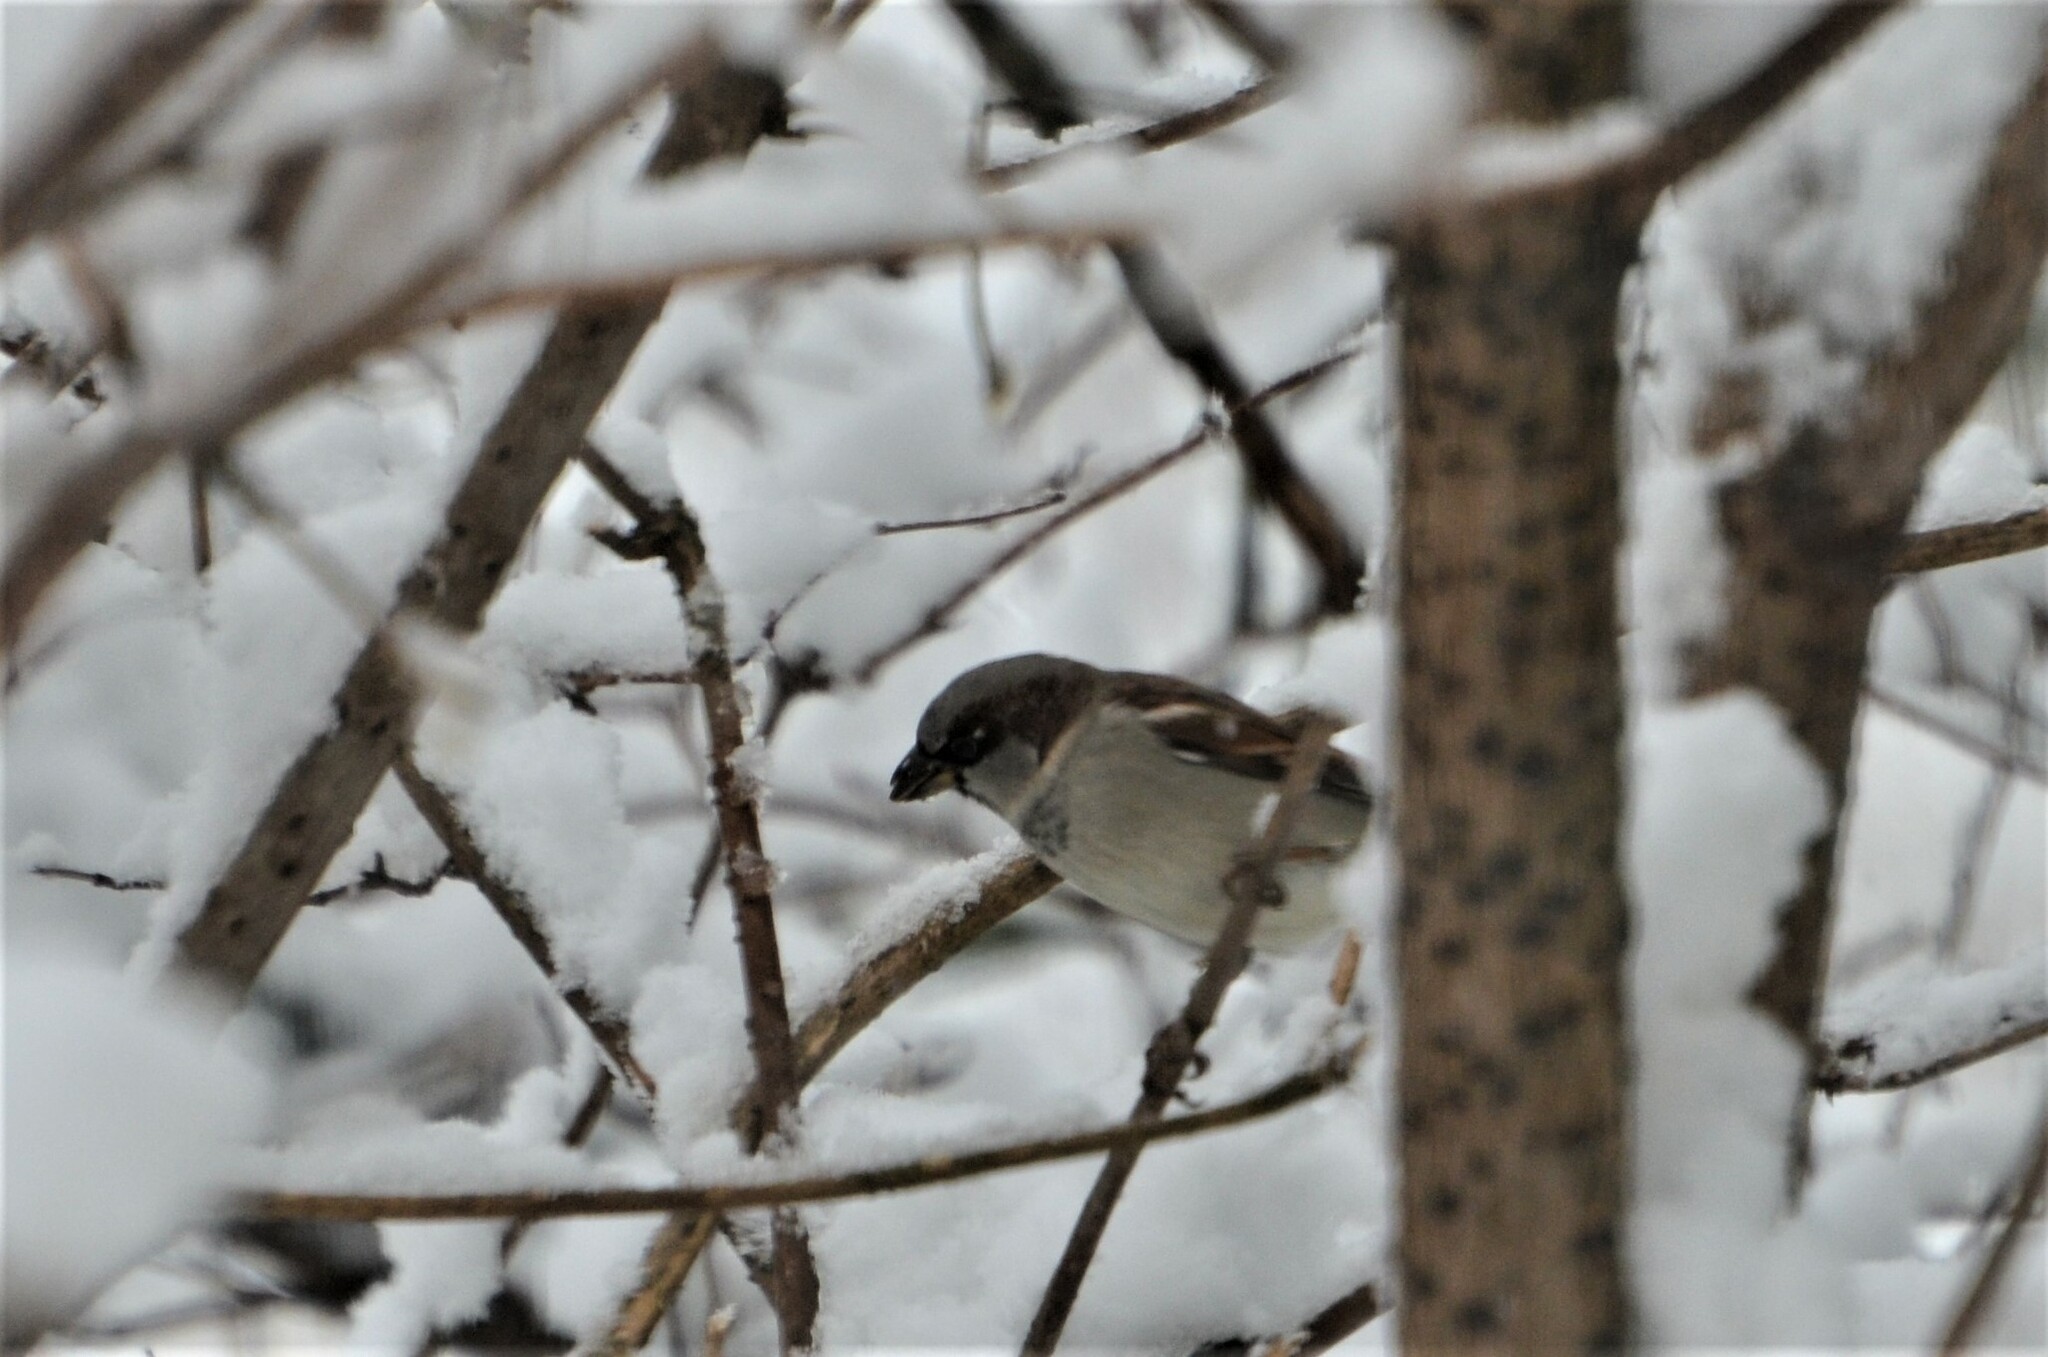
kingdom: Animalia
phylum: Chordata
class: Aves
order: Passeriformes
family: Passeridae
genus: Passer
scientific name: Passer domesticus
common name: House sparrow
